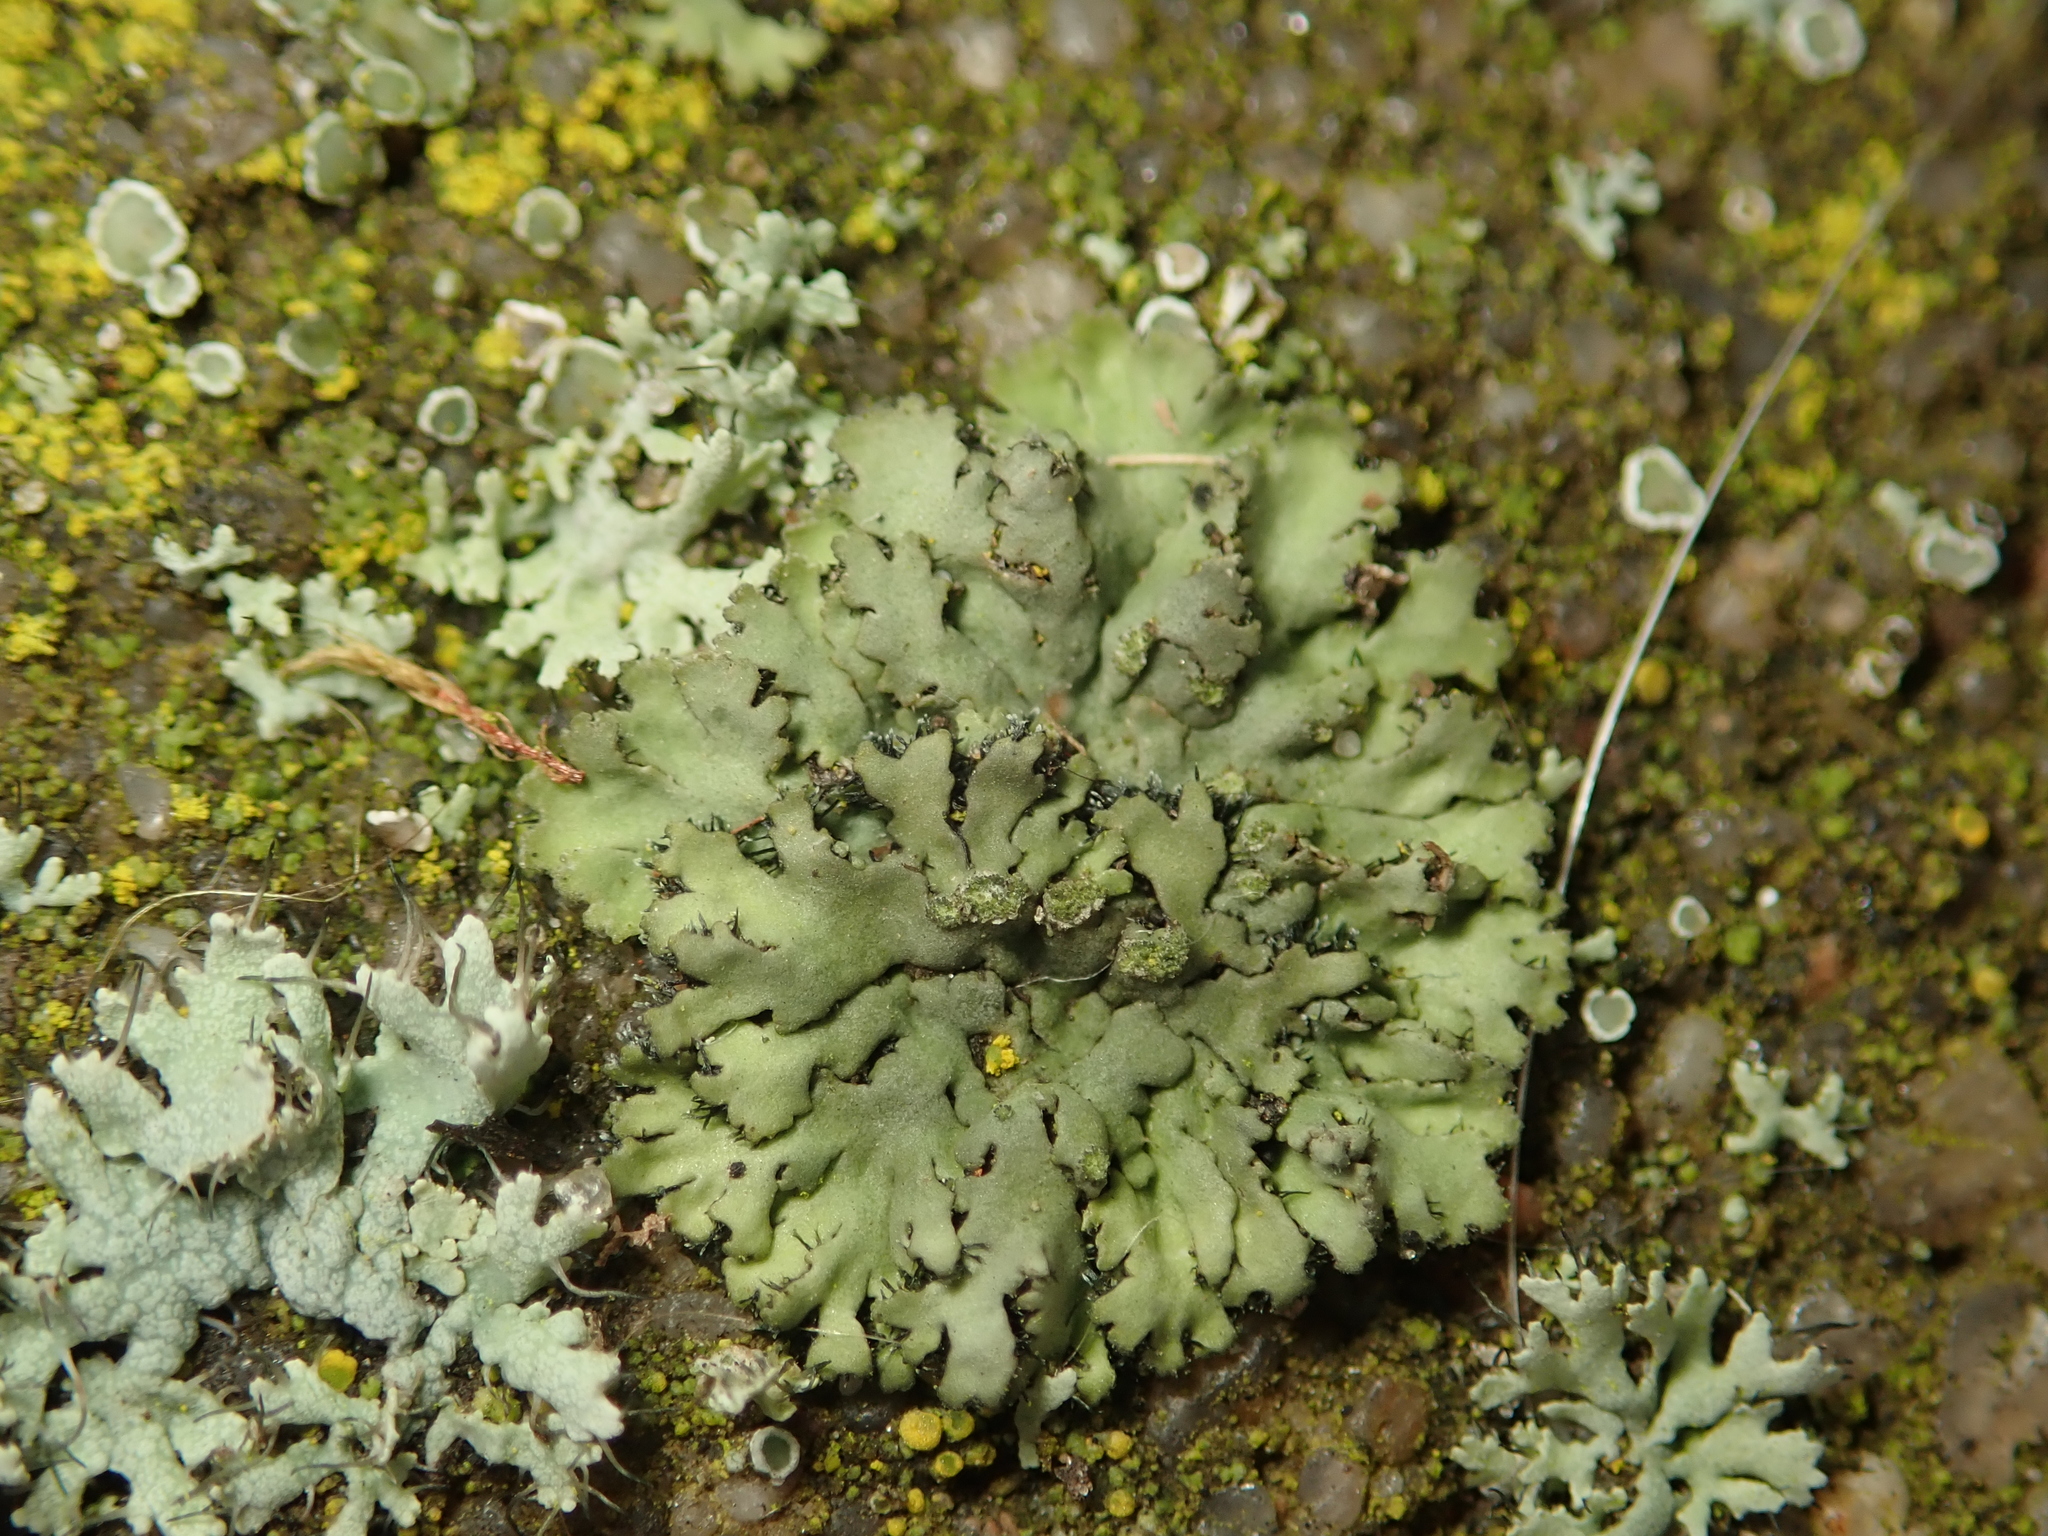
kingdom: Fungi
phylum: Ascomycota
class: Lecanoromycetes
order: Caliciales
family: Physciaceae
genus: Phaeophyscia
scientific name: Phaeophyscia orbicularis
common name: Mealy shadow lichen
